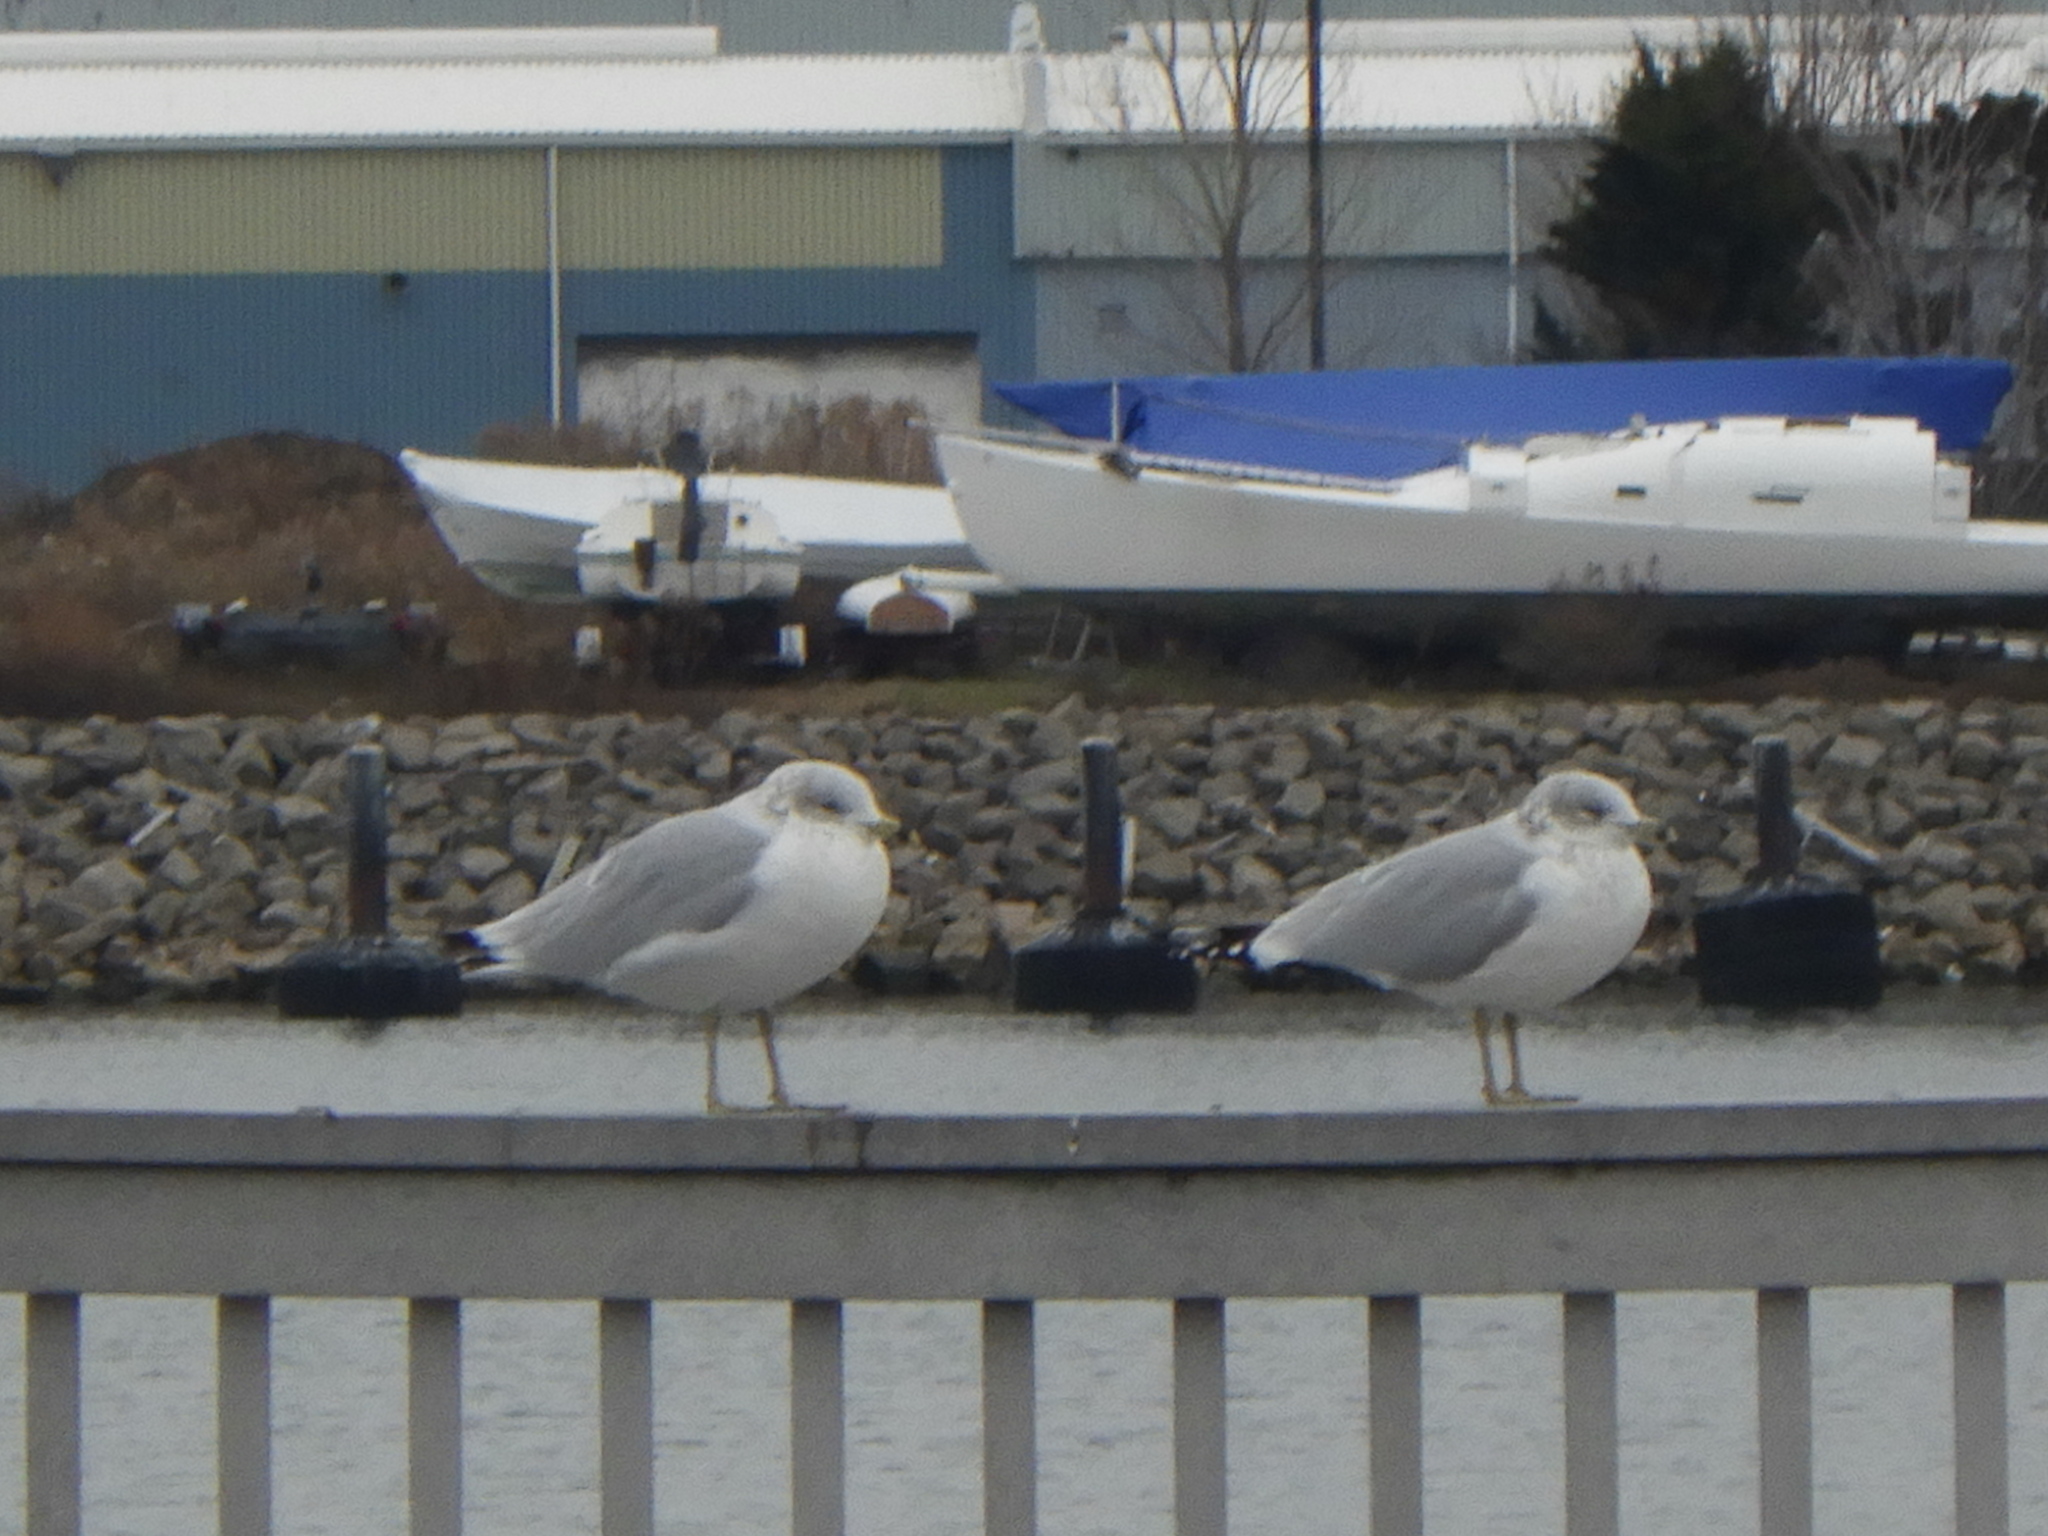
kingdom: Animalia
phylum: Chordata
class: Aves
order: Charadriiformes
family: Laridae
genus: Larus
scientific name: Larus delawarensis
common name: Ring-billed gull
